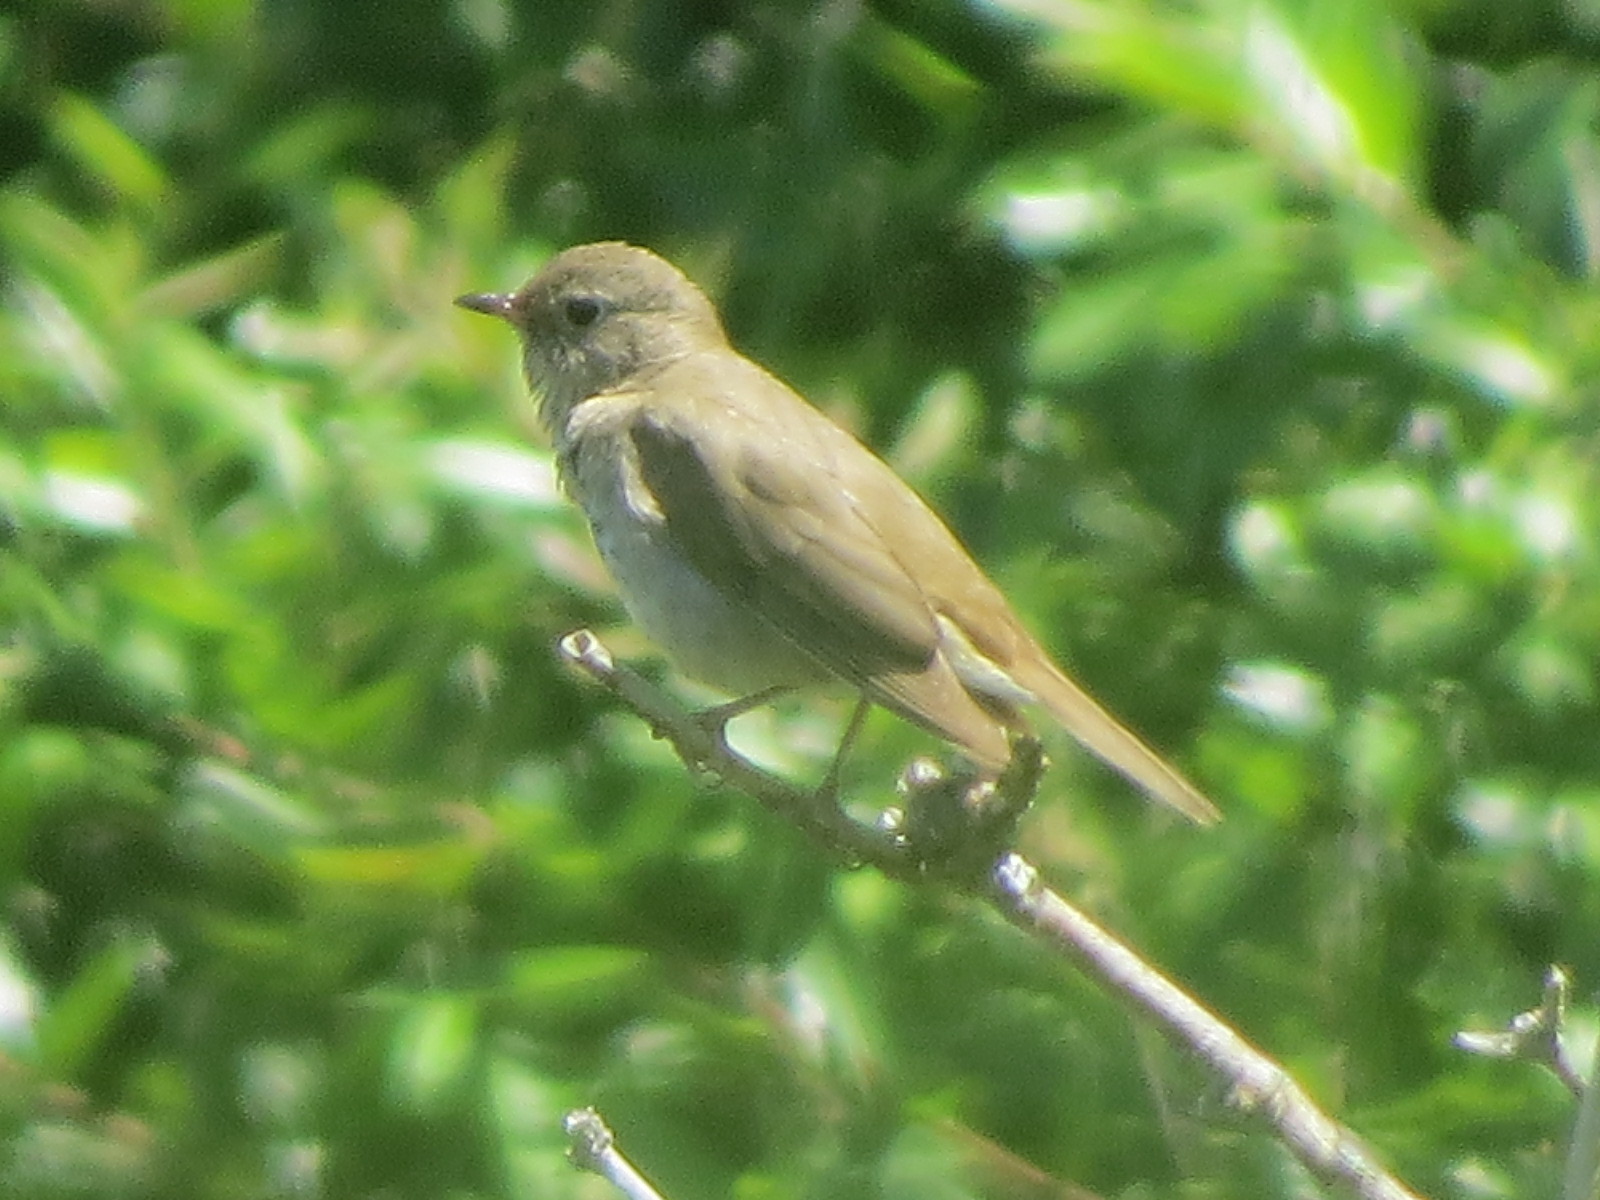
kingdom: Animalia
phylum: Chordata
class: Aves
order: Passeriformes
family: Turdidae
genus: Catharus
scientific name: Catharus ustulatus
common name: Swainson's thrush
